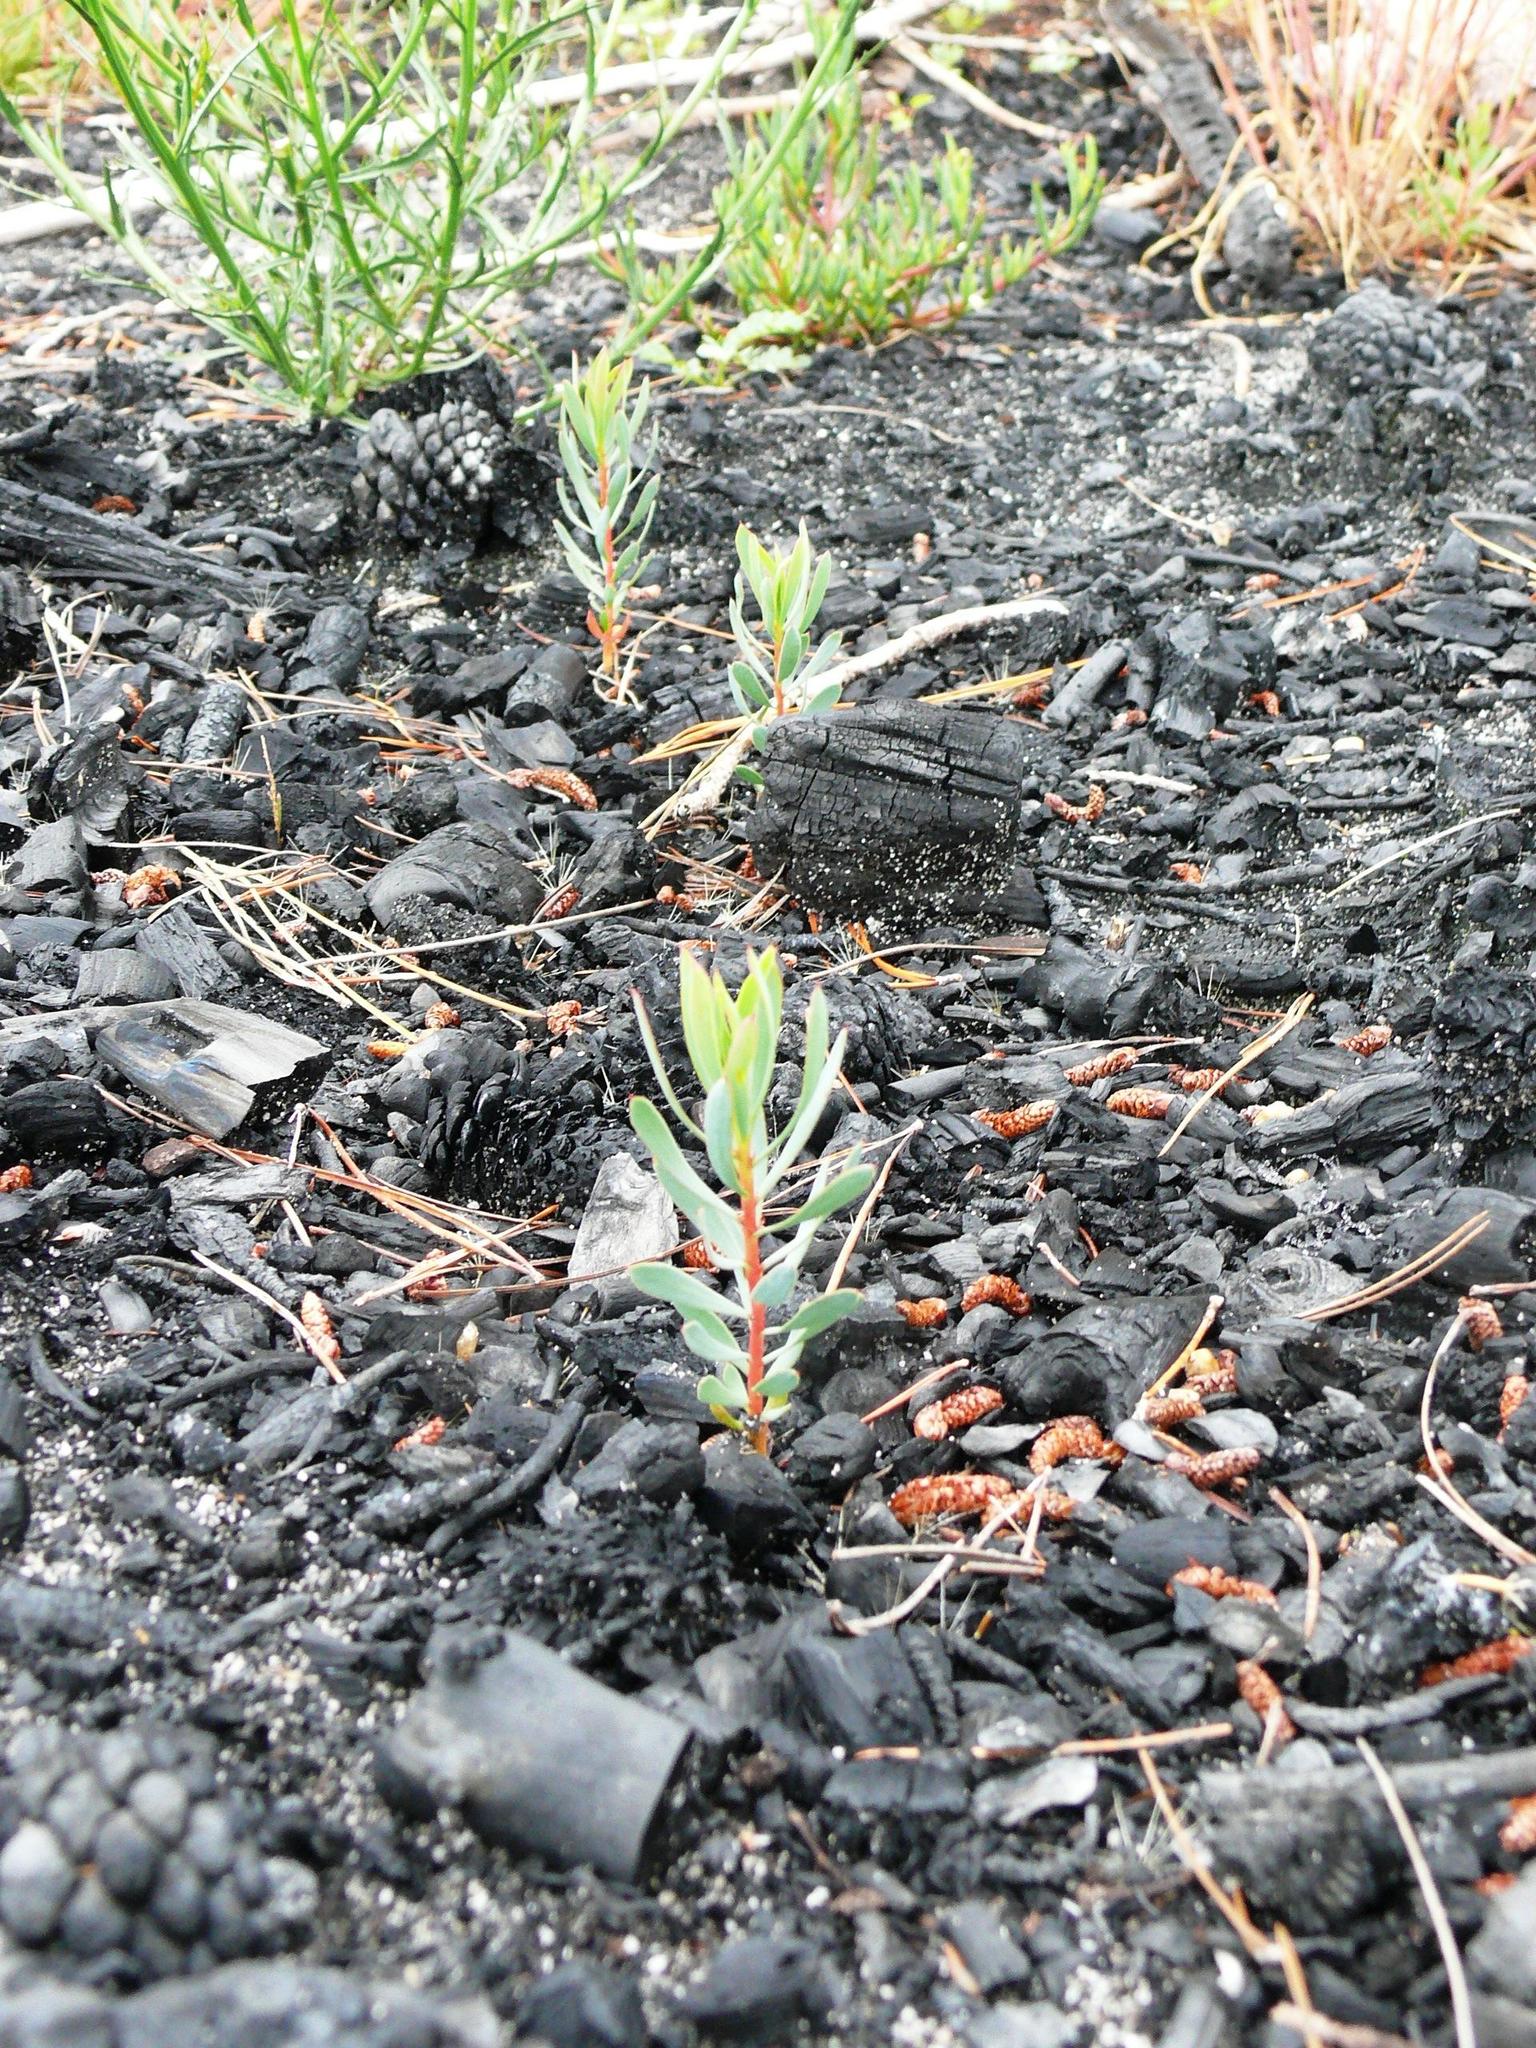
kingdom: Plantae
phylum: Tracheophyta
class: Magnoliopsida
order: Proteales
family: Proteaceae
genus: Protea
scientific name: Protea scolymocephala
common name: Thistle sugarbush
